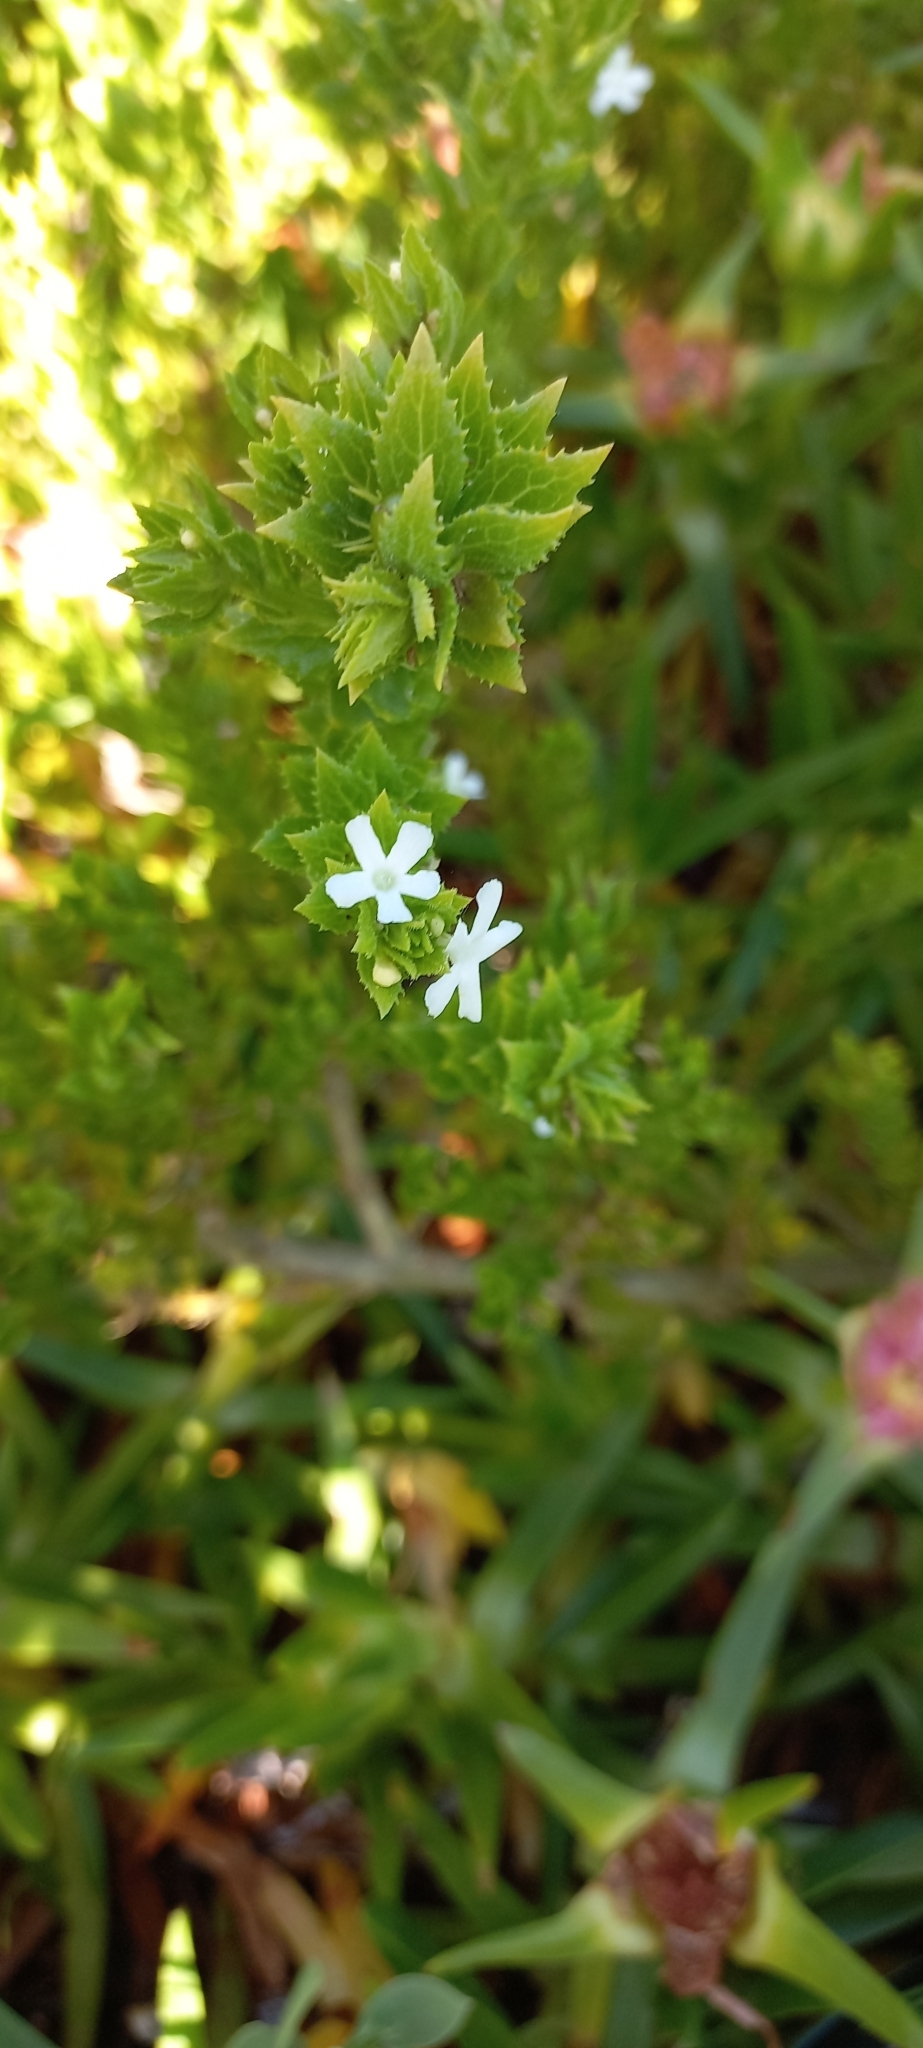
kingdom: Plantae
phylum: Tracheophyta
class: Magnoliopsida
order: Lamiales
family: Scrophulariaceae
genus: Oftia
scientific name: Oftia africana
